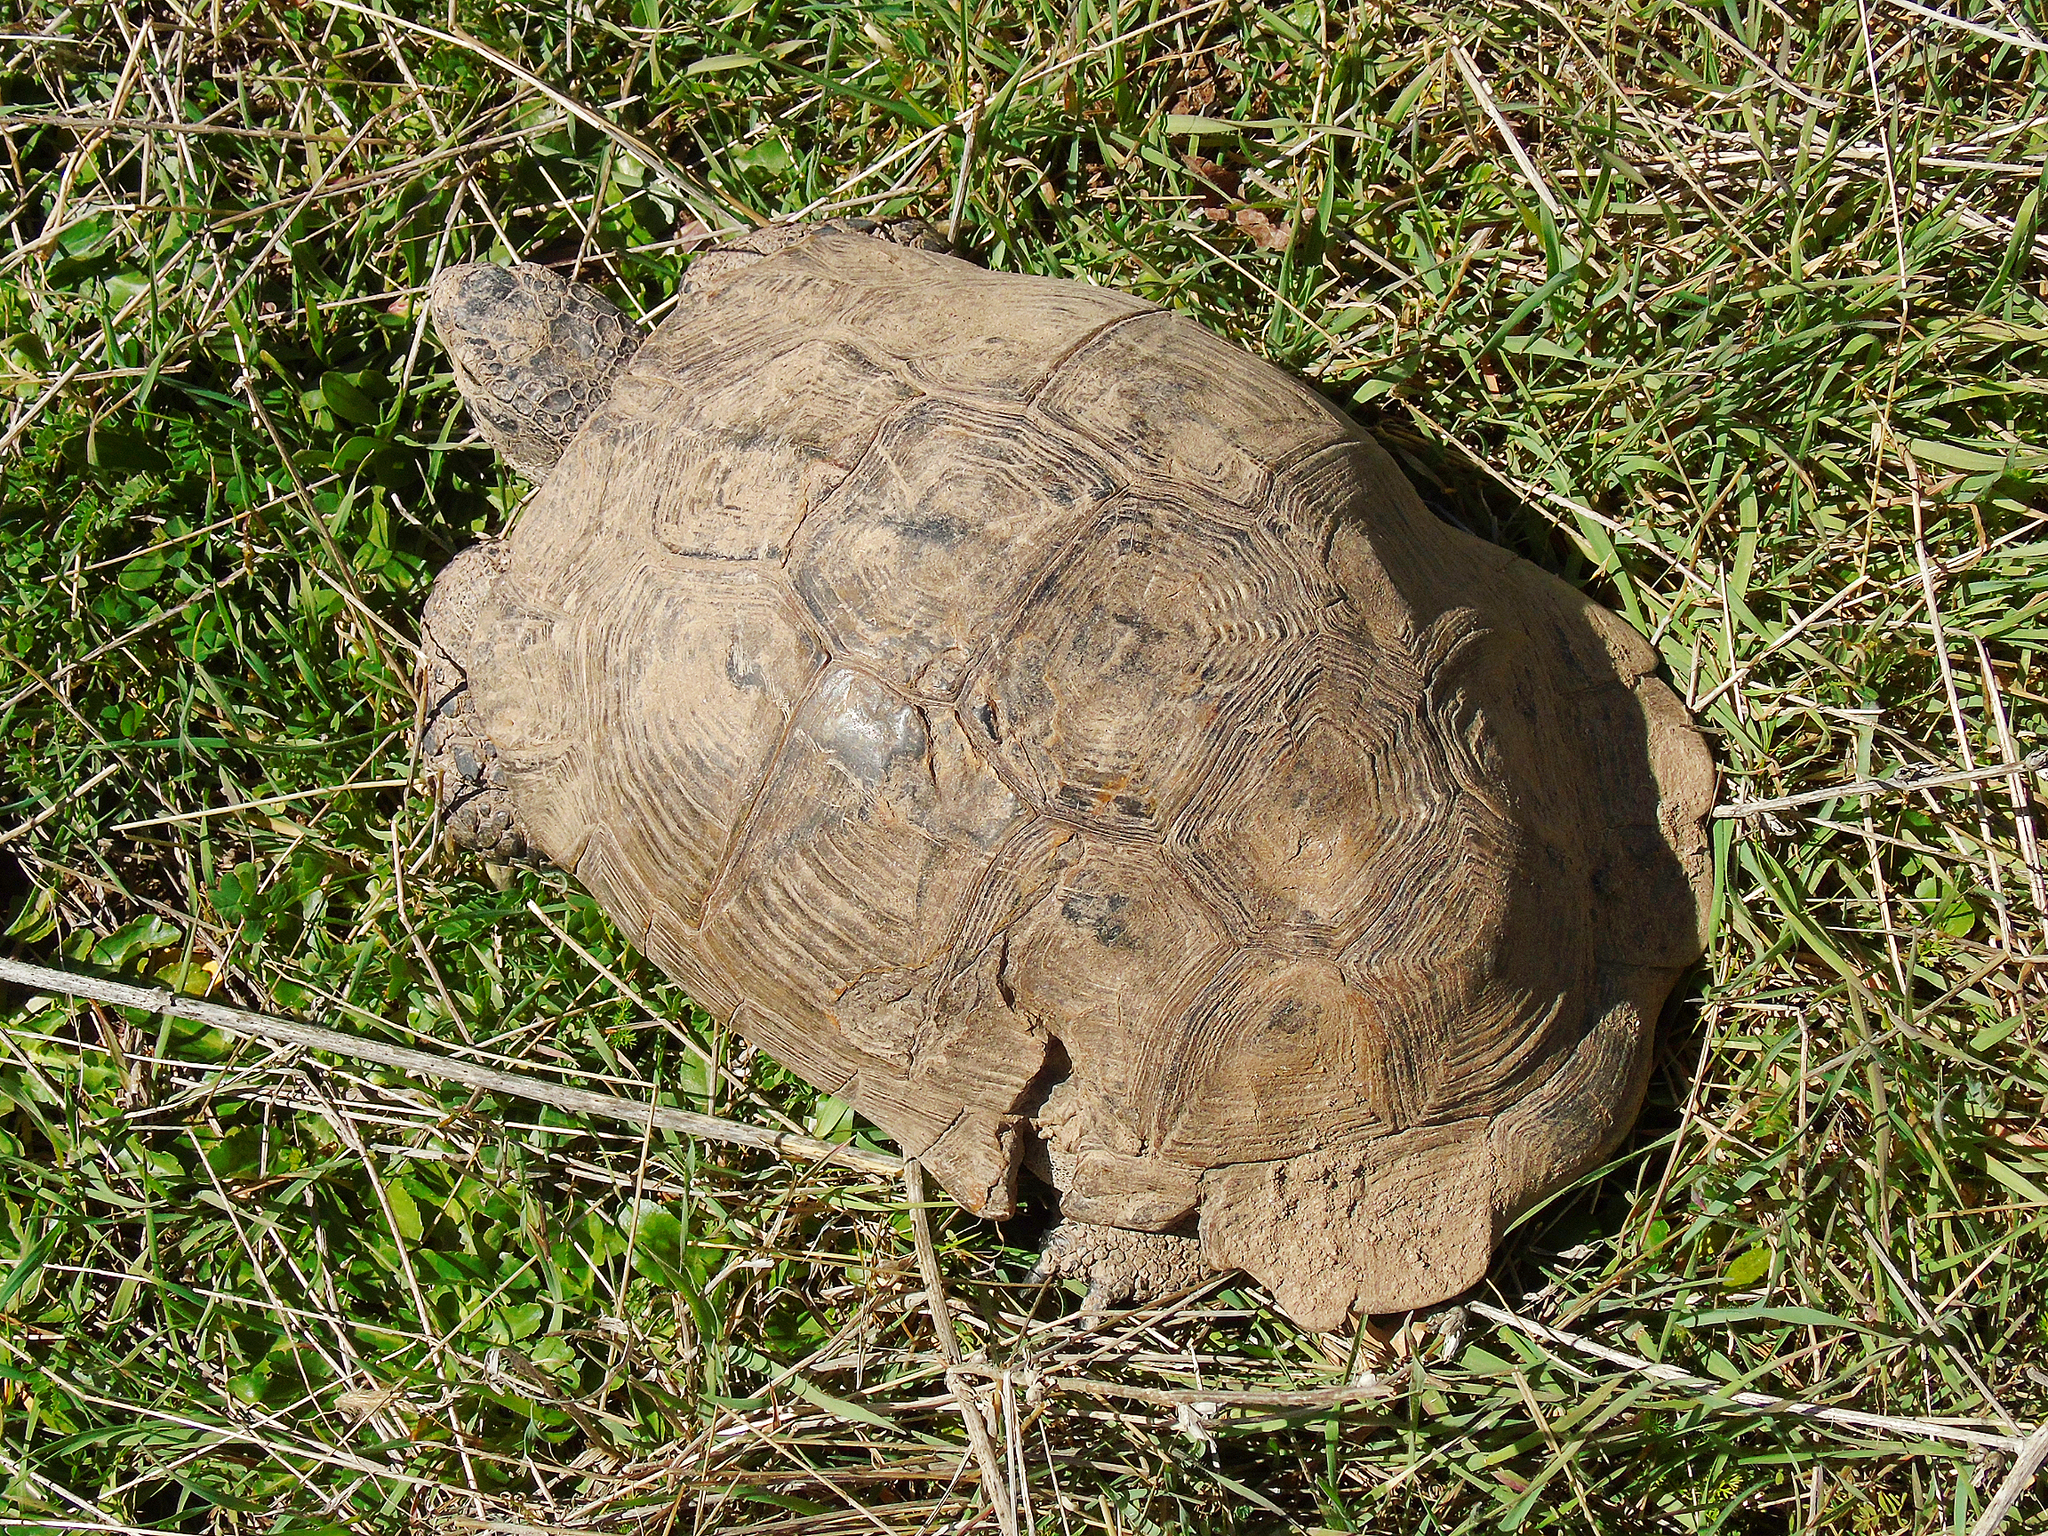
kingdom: Animalia
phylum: Chordata
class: Testudines
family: Testudinidae
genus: Testudo
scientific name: Testudo graeca
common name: Common tortoise
